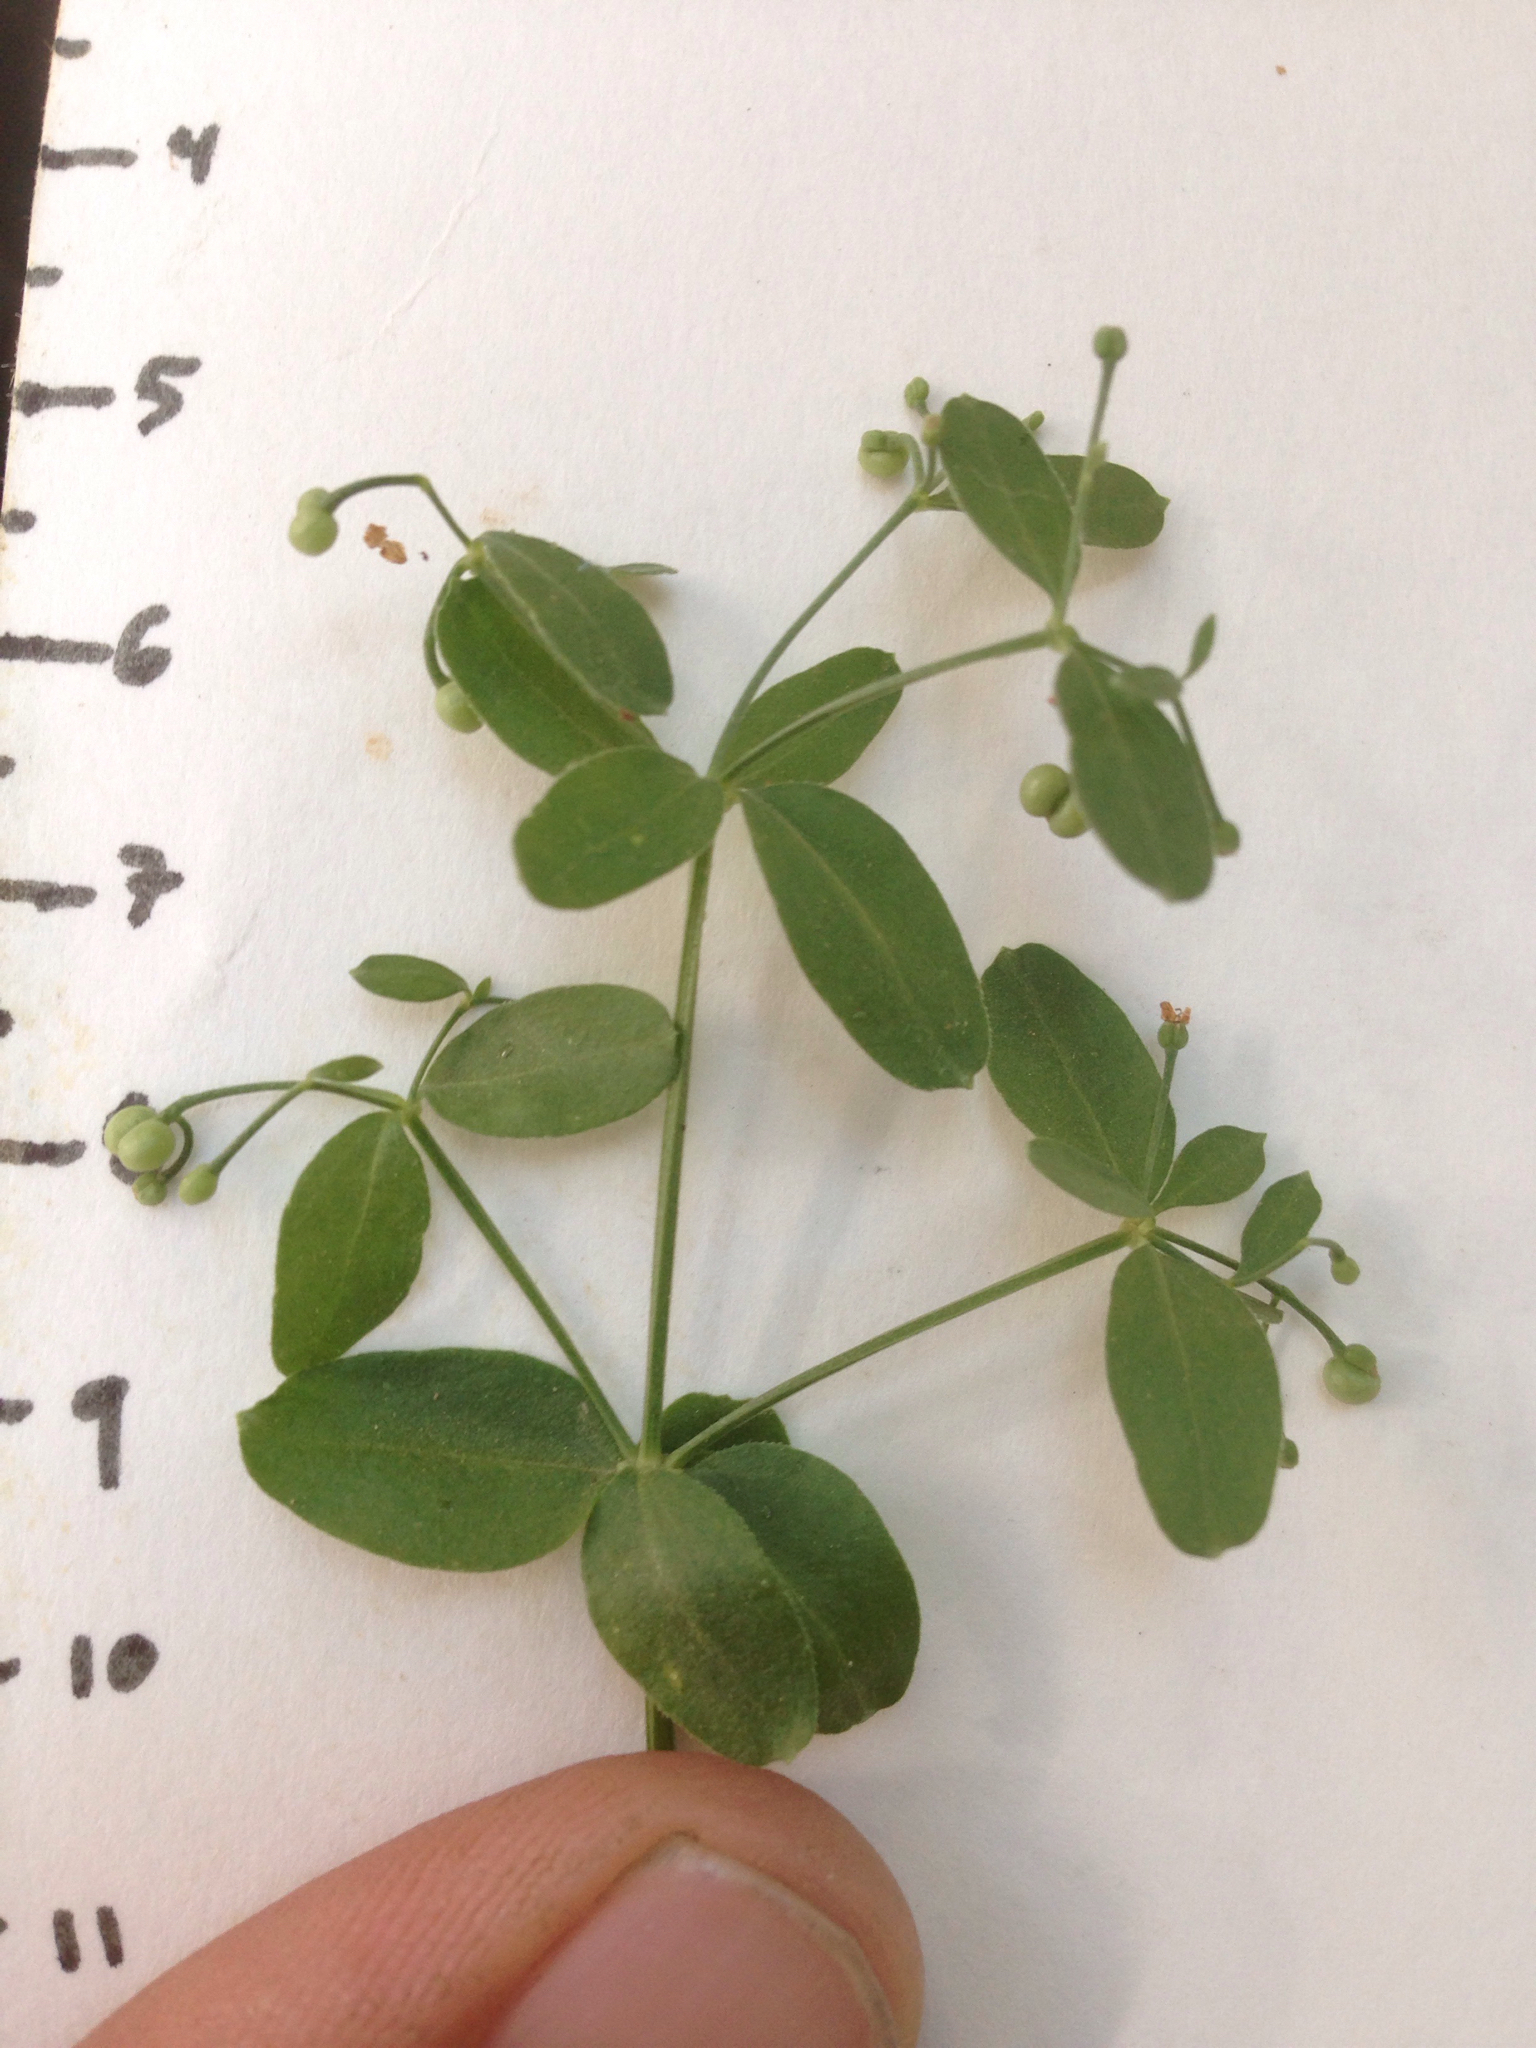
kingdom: Plantae
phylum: Tracheophyta
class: Magnoliopsida
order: Gentianales
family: Rubiaceae
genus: Galium
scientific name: Galium sparsiflorum
